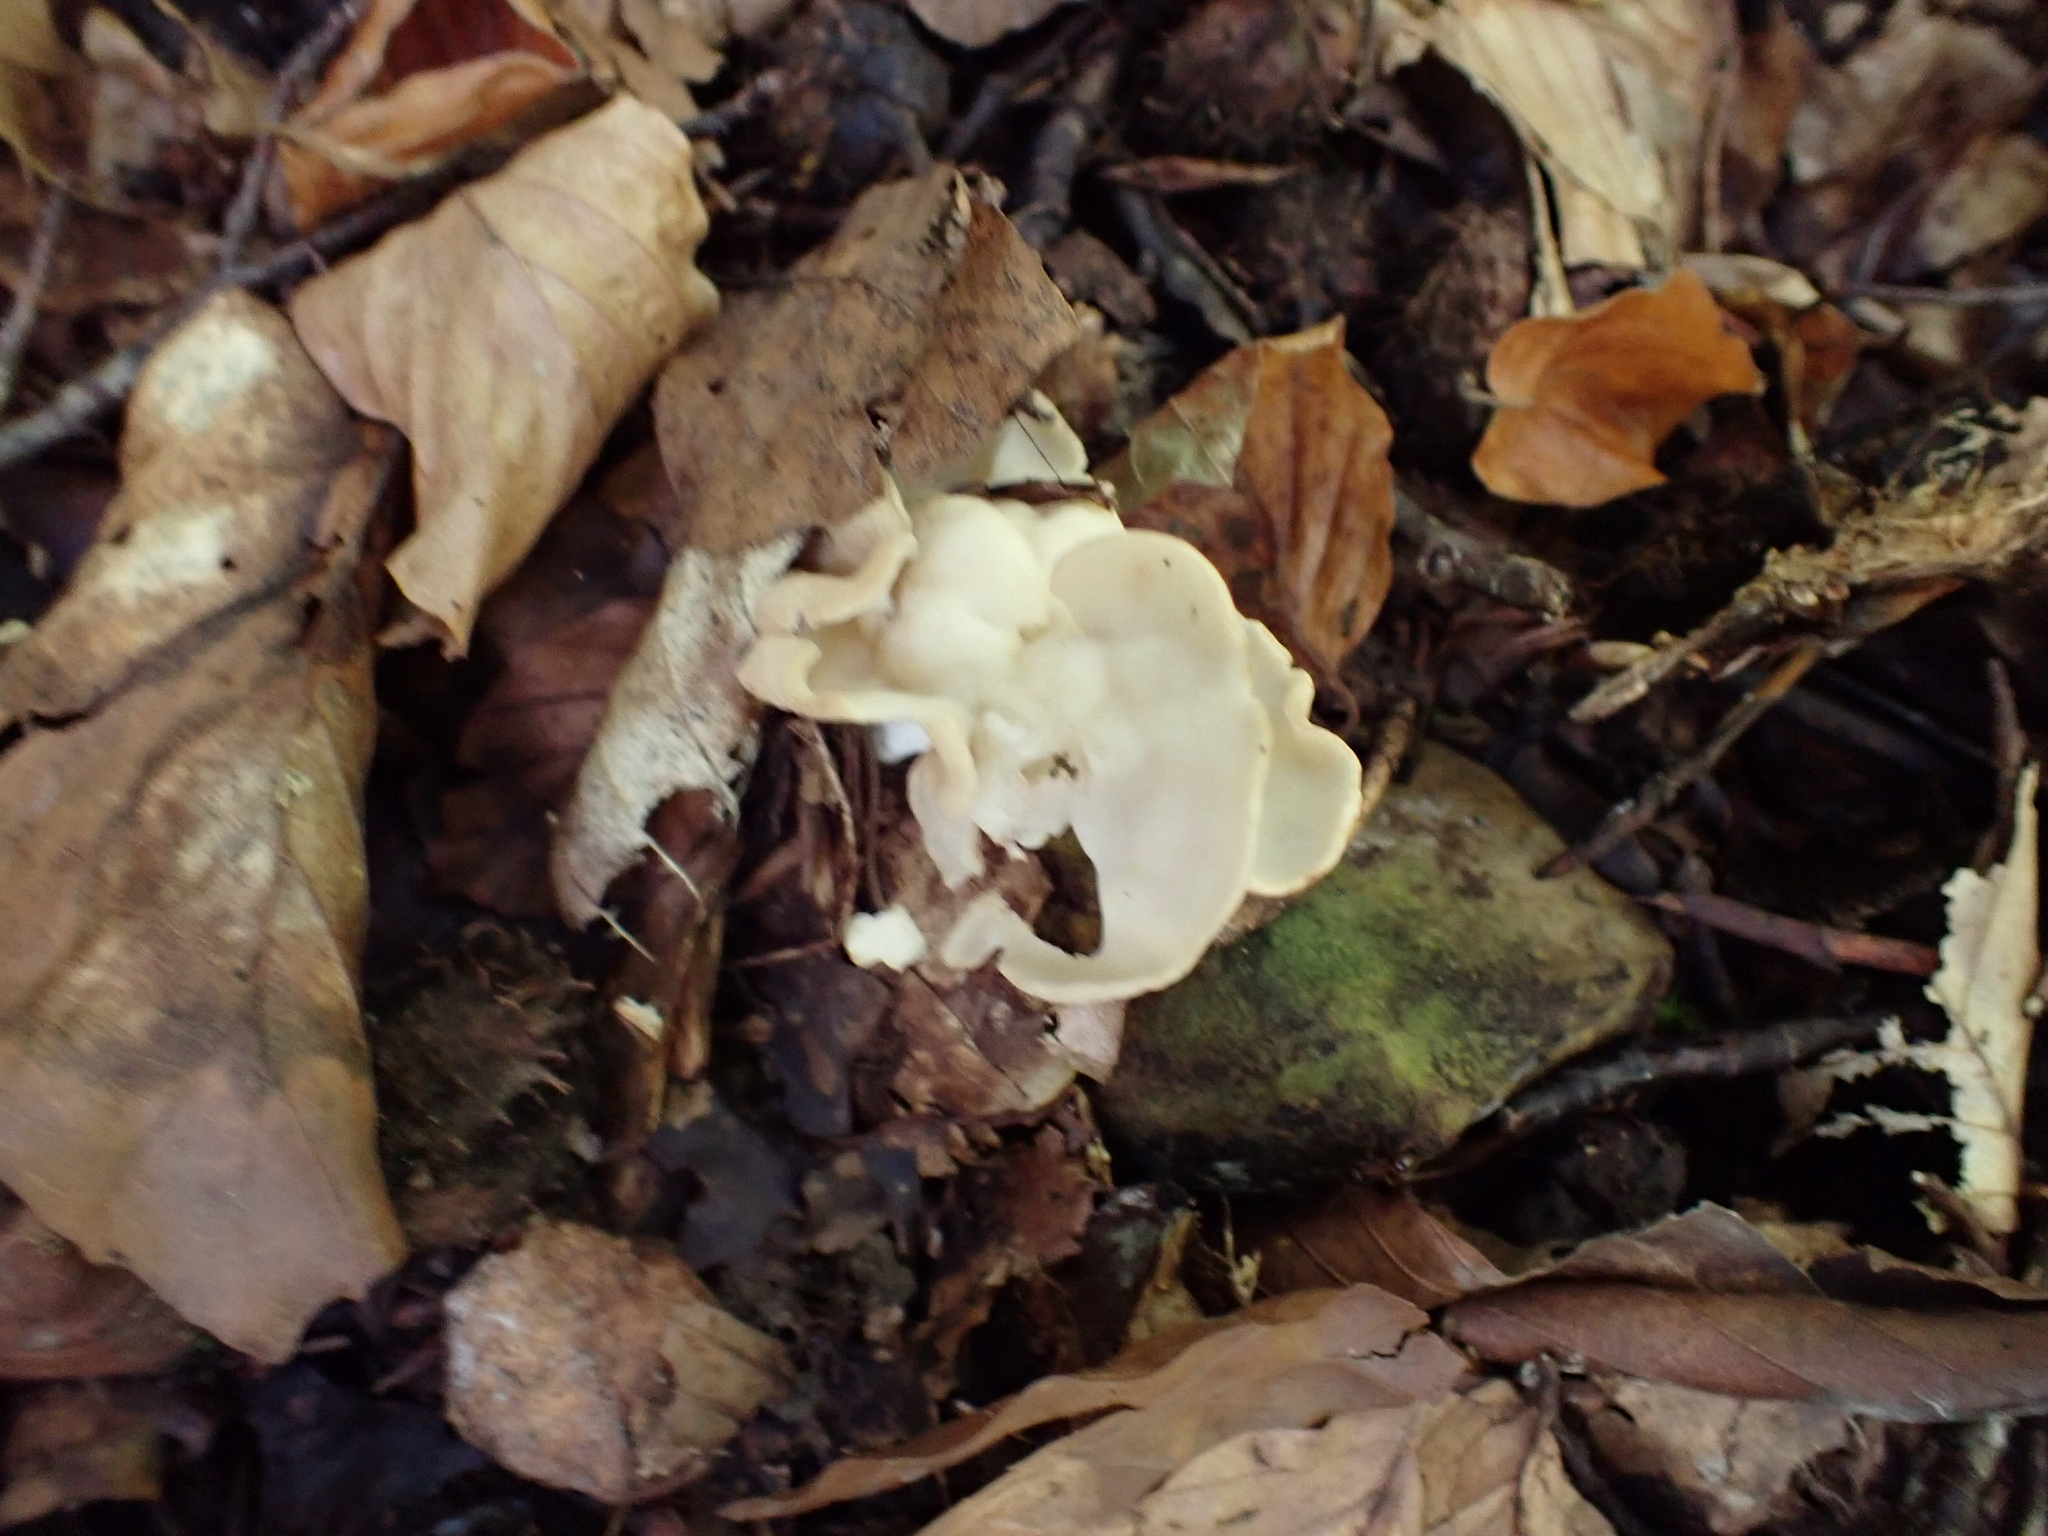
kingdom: Fungi
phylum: Ascomycota
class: Pezizomycetes
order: Pezizales
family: Helvellaceae
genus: Helvella
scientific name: Helvella crispa
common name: White saddle
